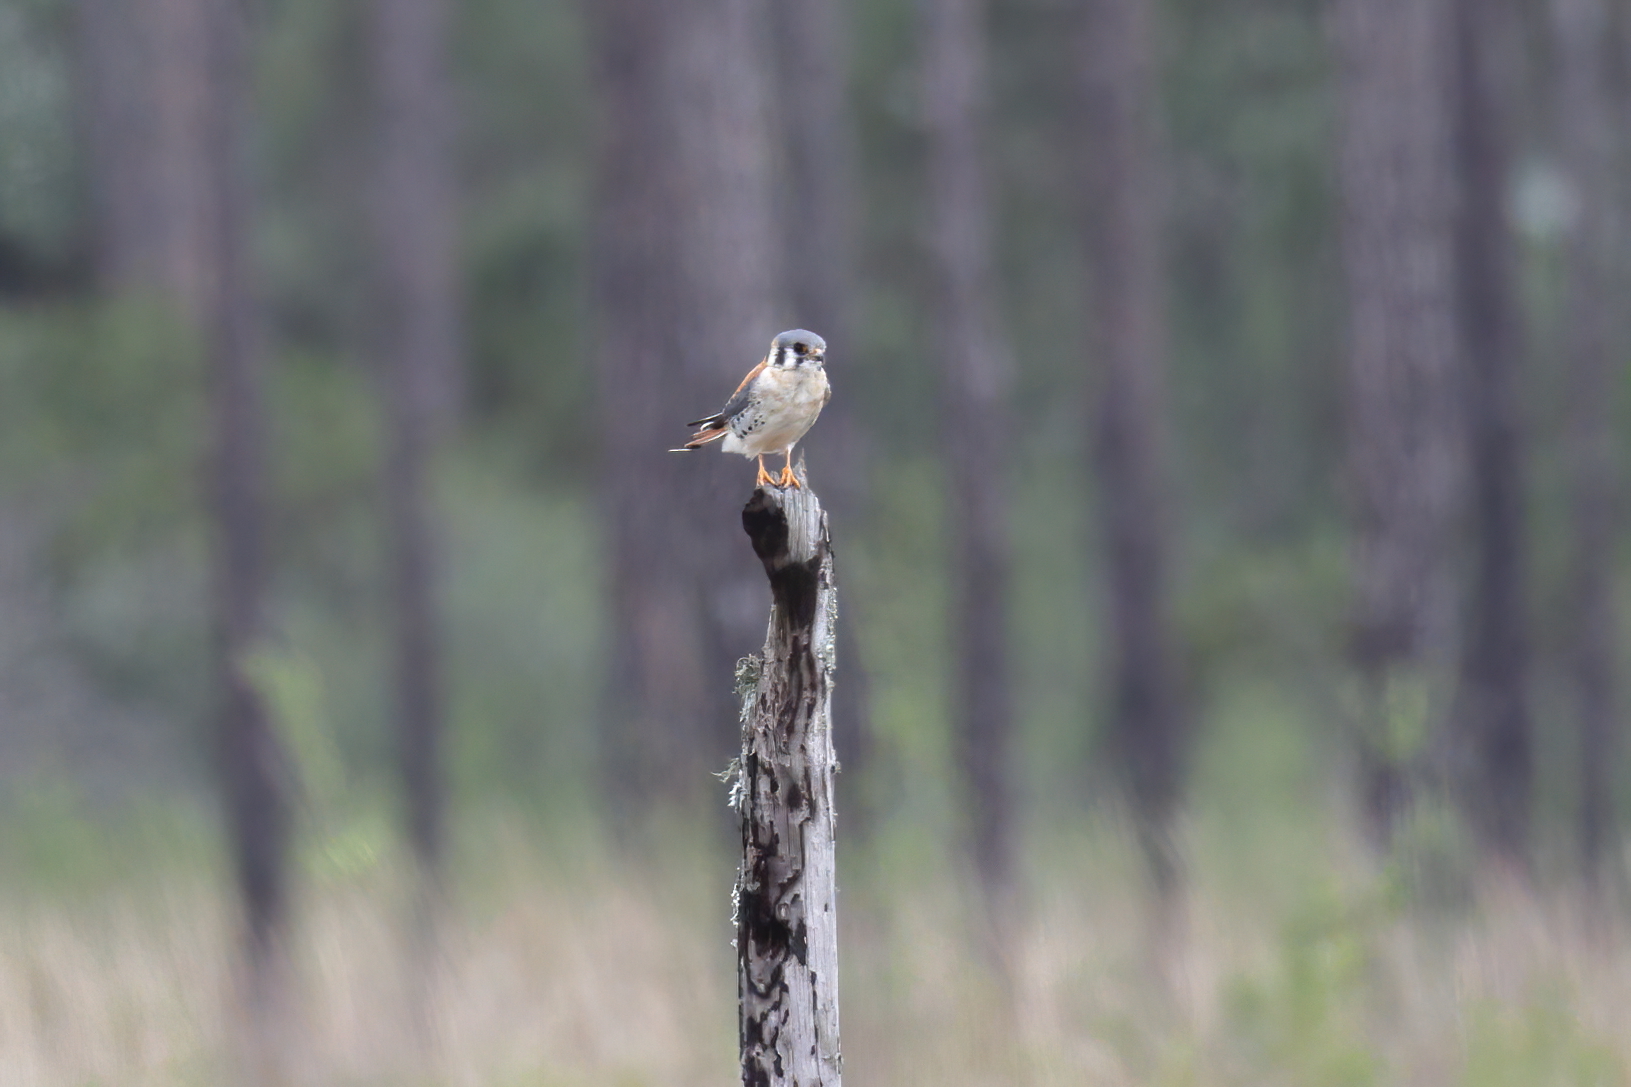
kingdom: Animalia
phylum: Chordata
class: Aves
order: Falconiformes
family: Falconidae
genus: Falco
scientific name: Falco sparverius
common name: American kestrel
